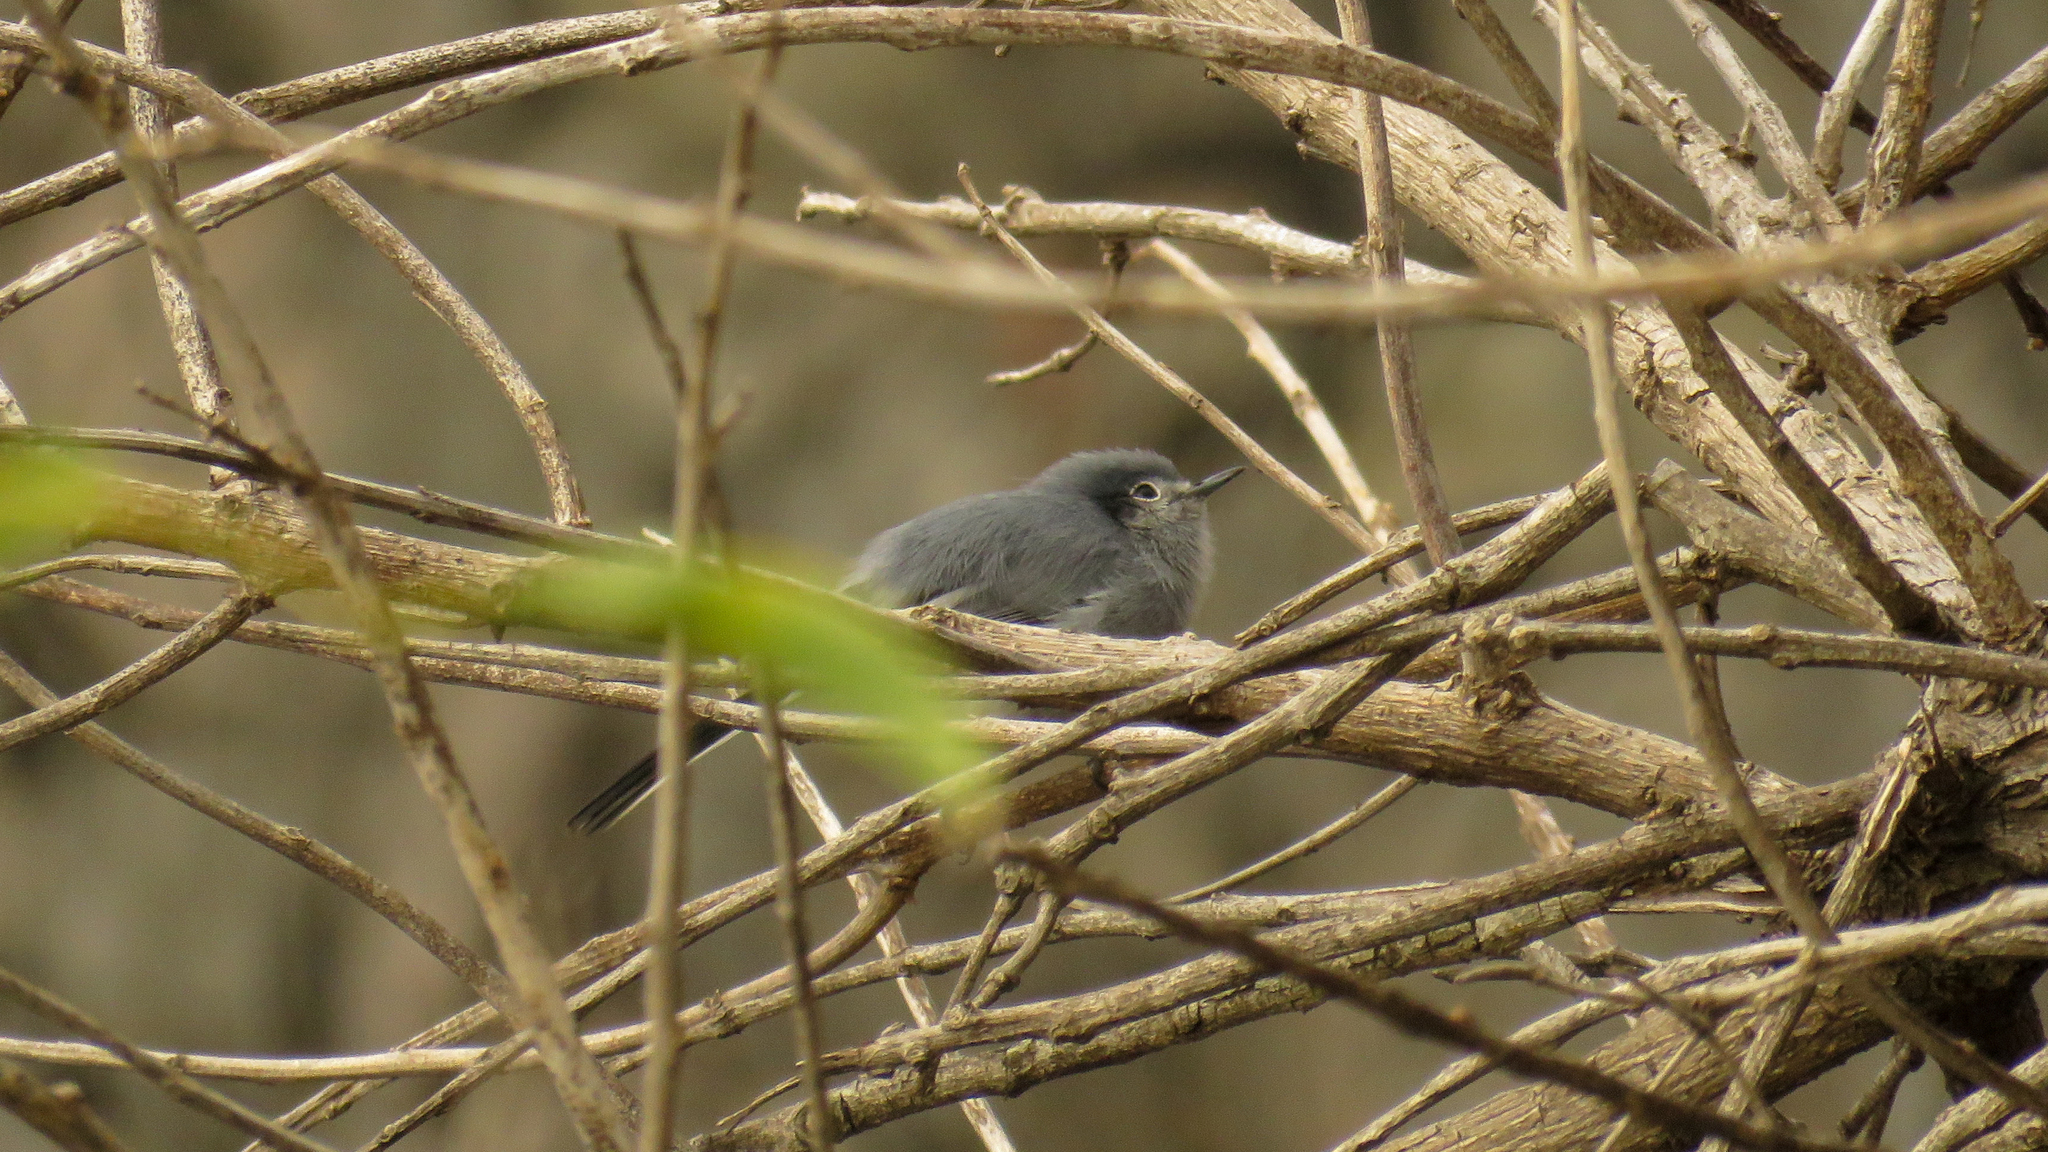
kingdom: Animalia
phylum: Chordata
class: Aves
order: Passeriformes
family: Polioptilidae
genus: Polioptila
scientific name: Polioptila dumicola
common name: Masked gnatcatcher
